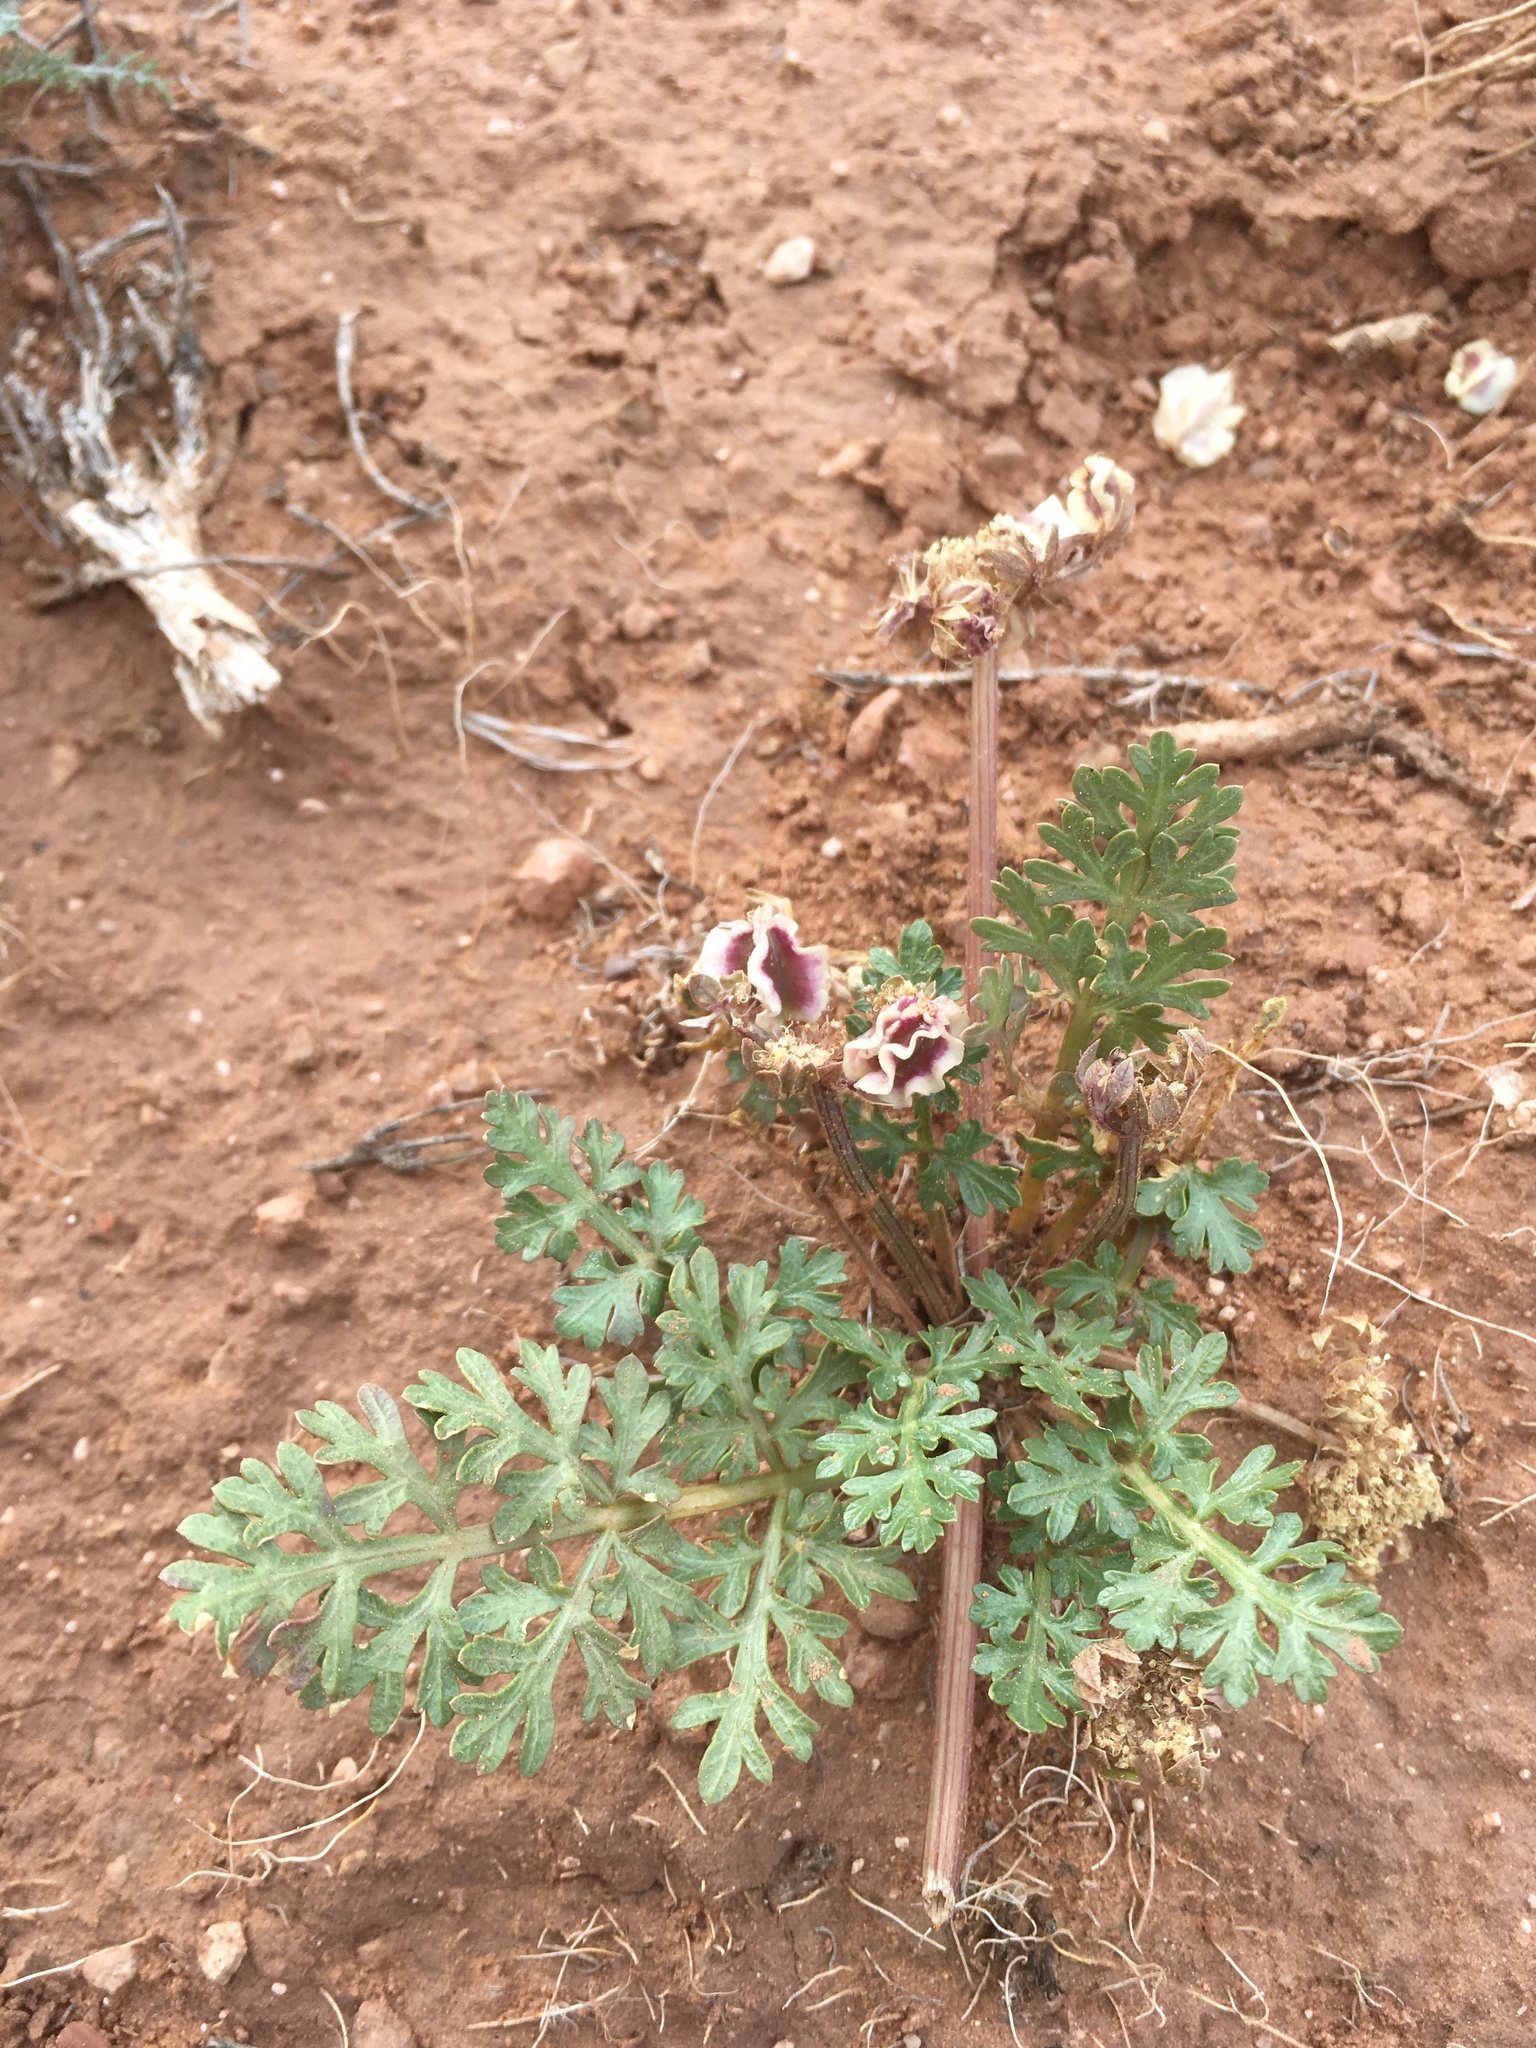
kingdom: Plantae
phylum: Tracheophyta
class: Magnoliopsida
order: Apiales
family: Apiaceae
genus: Cymopterus
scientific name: Cymopterus glomeratus
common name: Plains spring parsley
